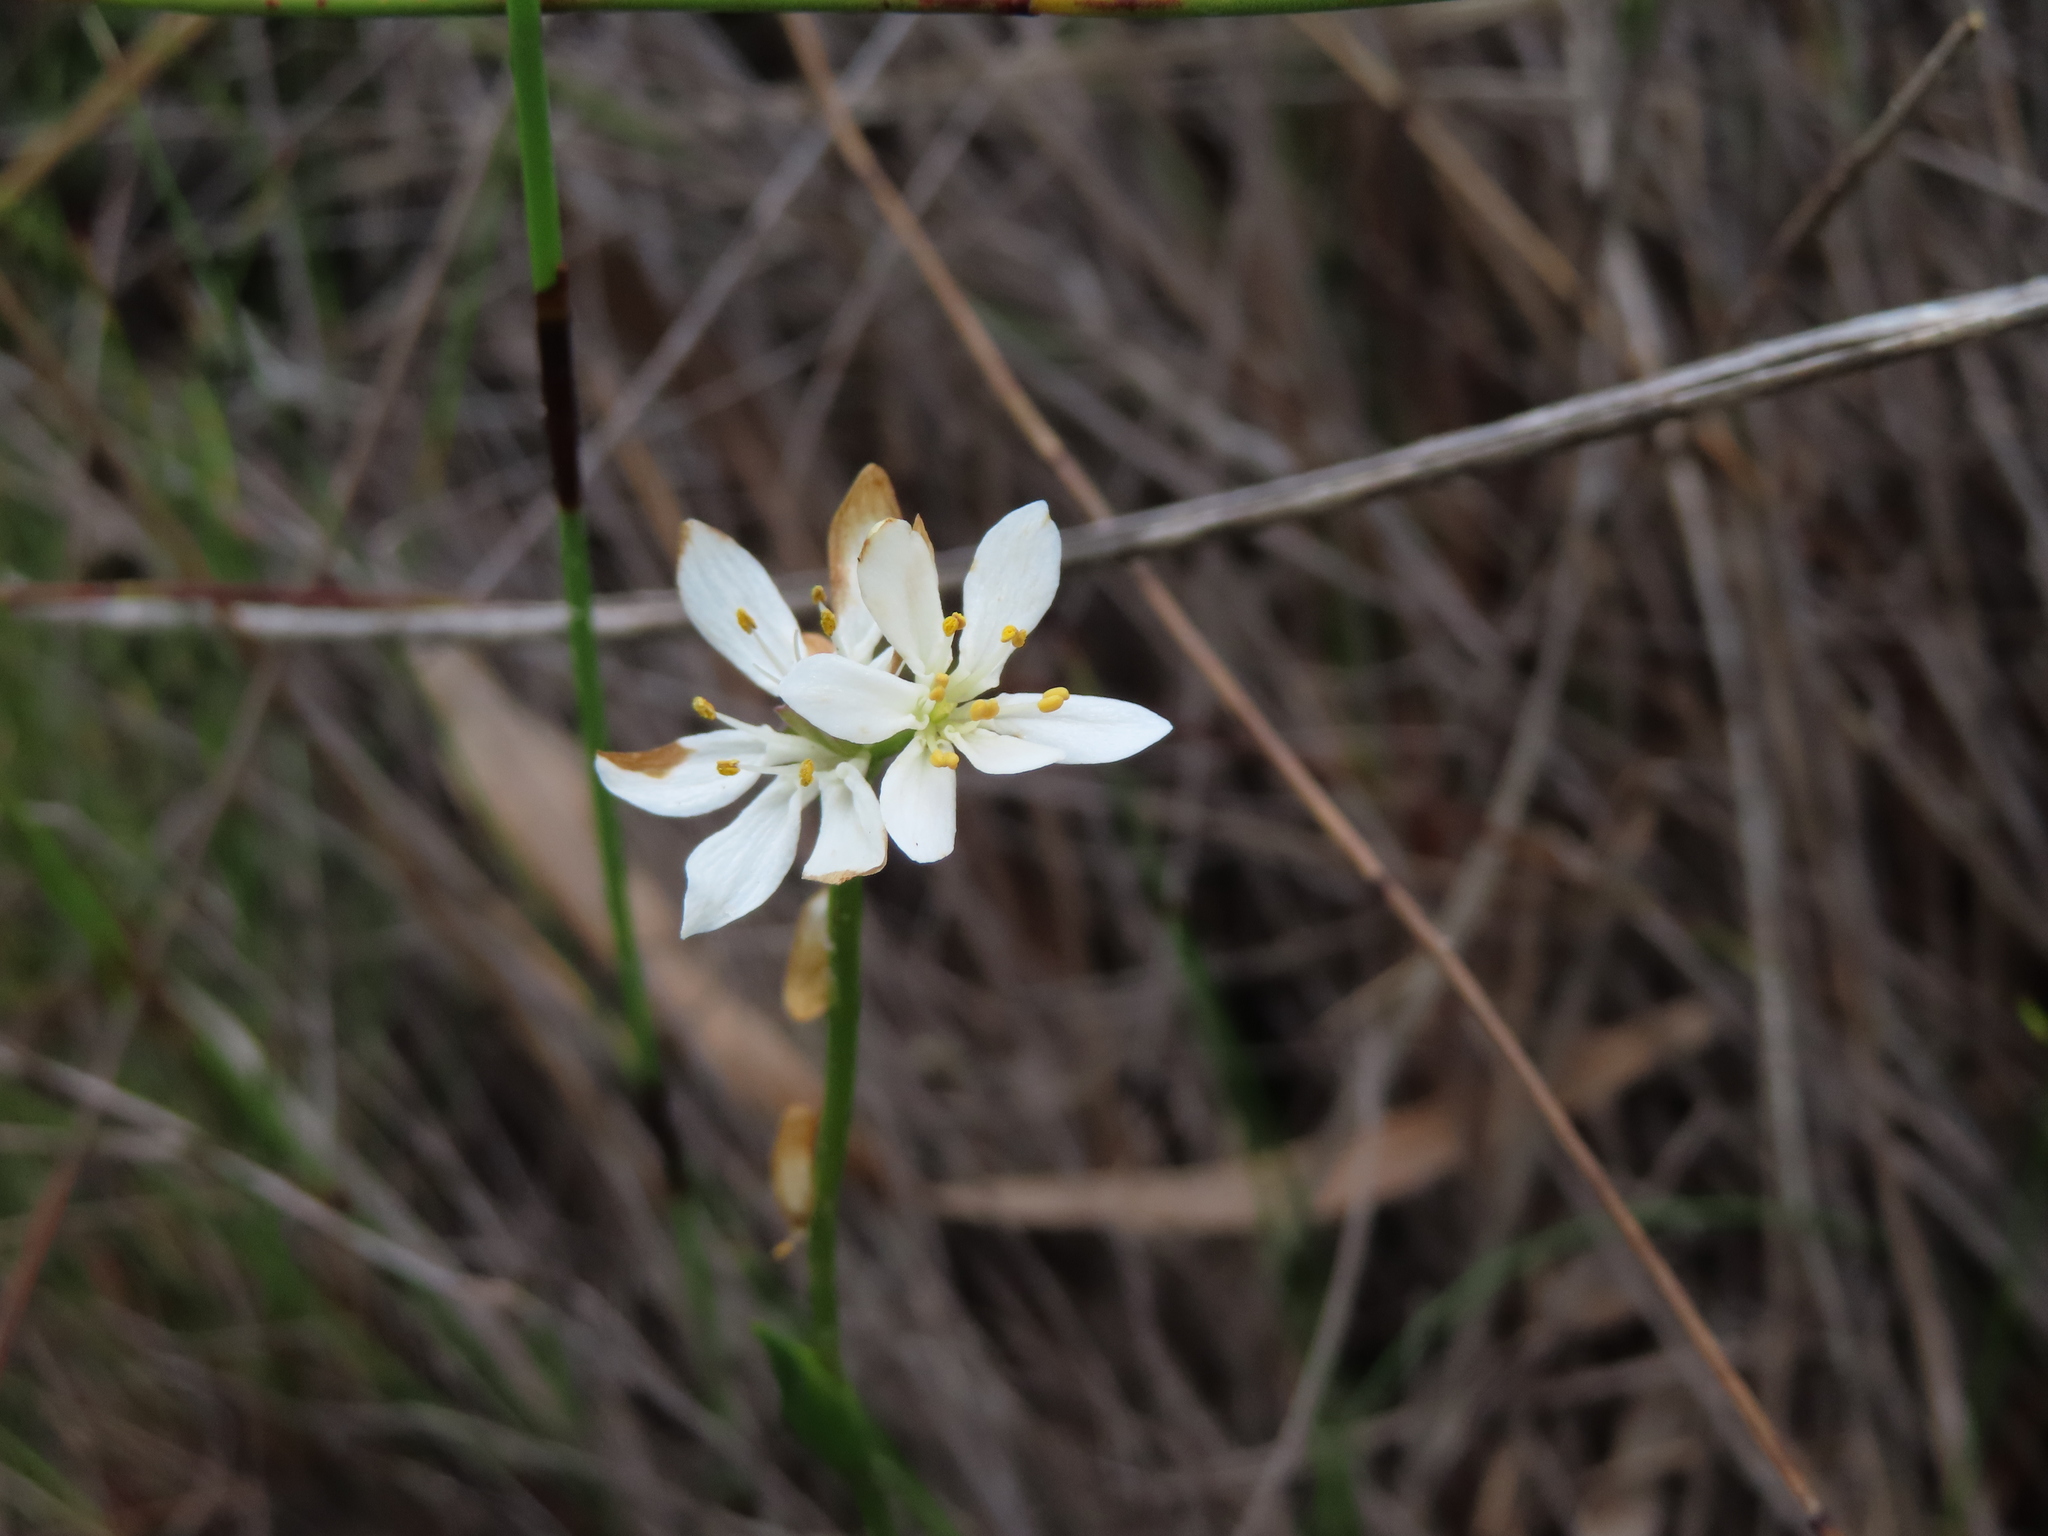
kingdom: Plantae
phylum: Tracheophyta
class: Liliopsida
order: Liliales
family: Colchicaceae
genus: Wurmbea
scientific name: Wurmbea punctata
